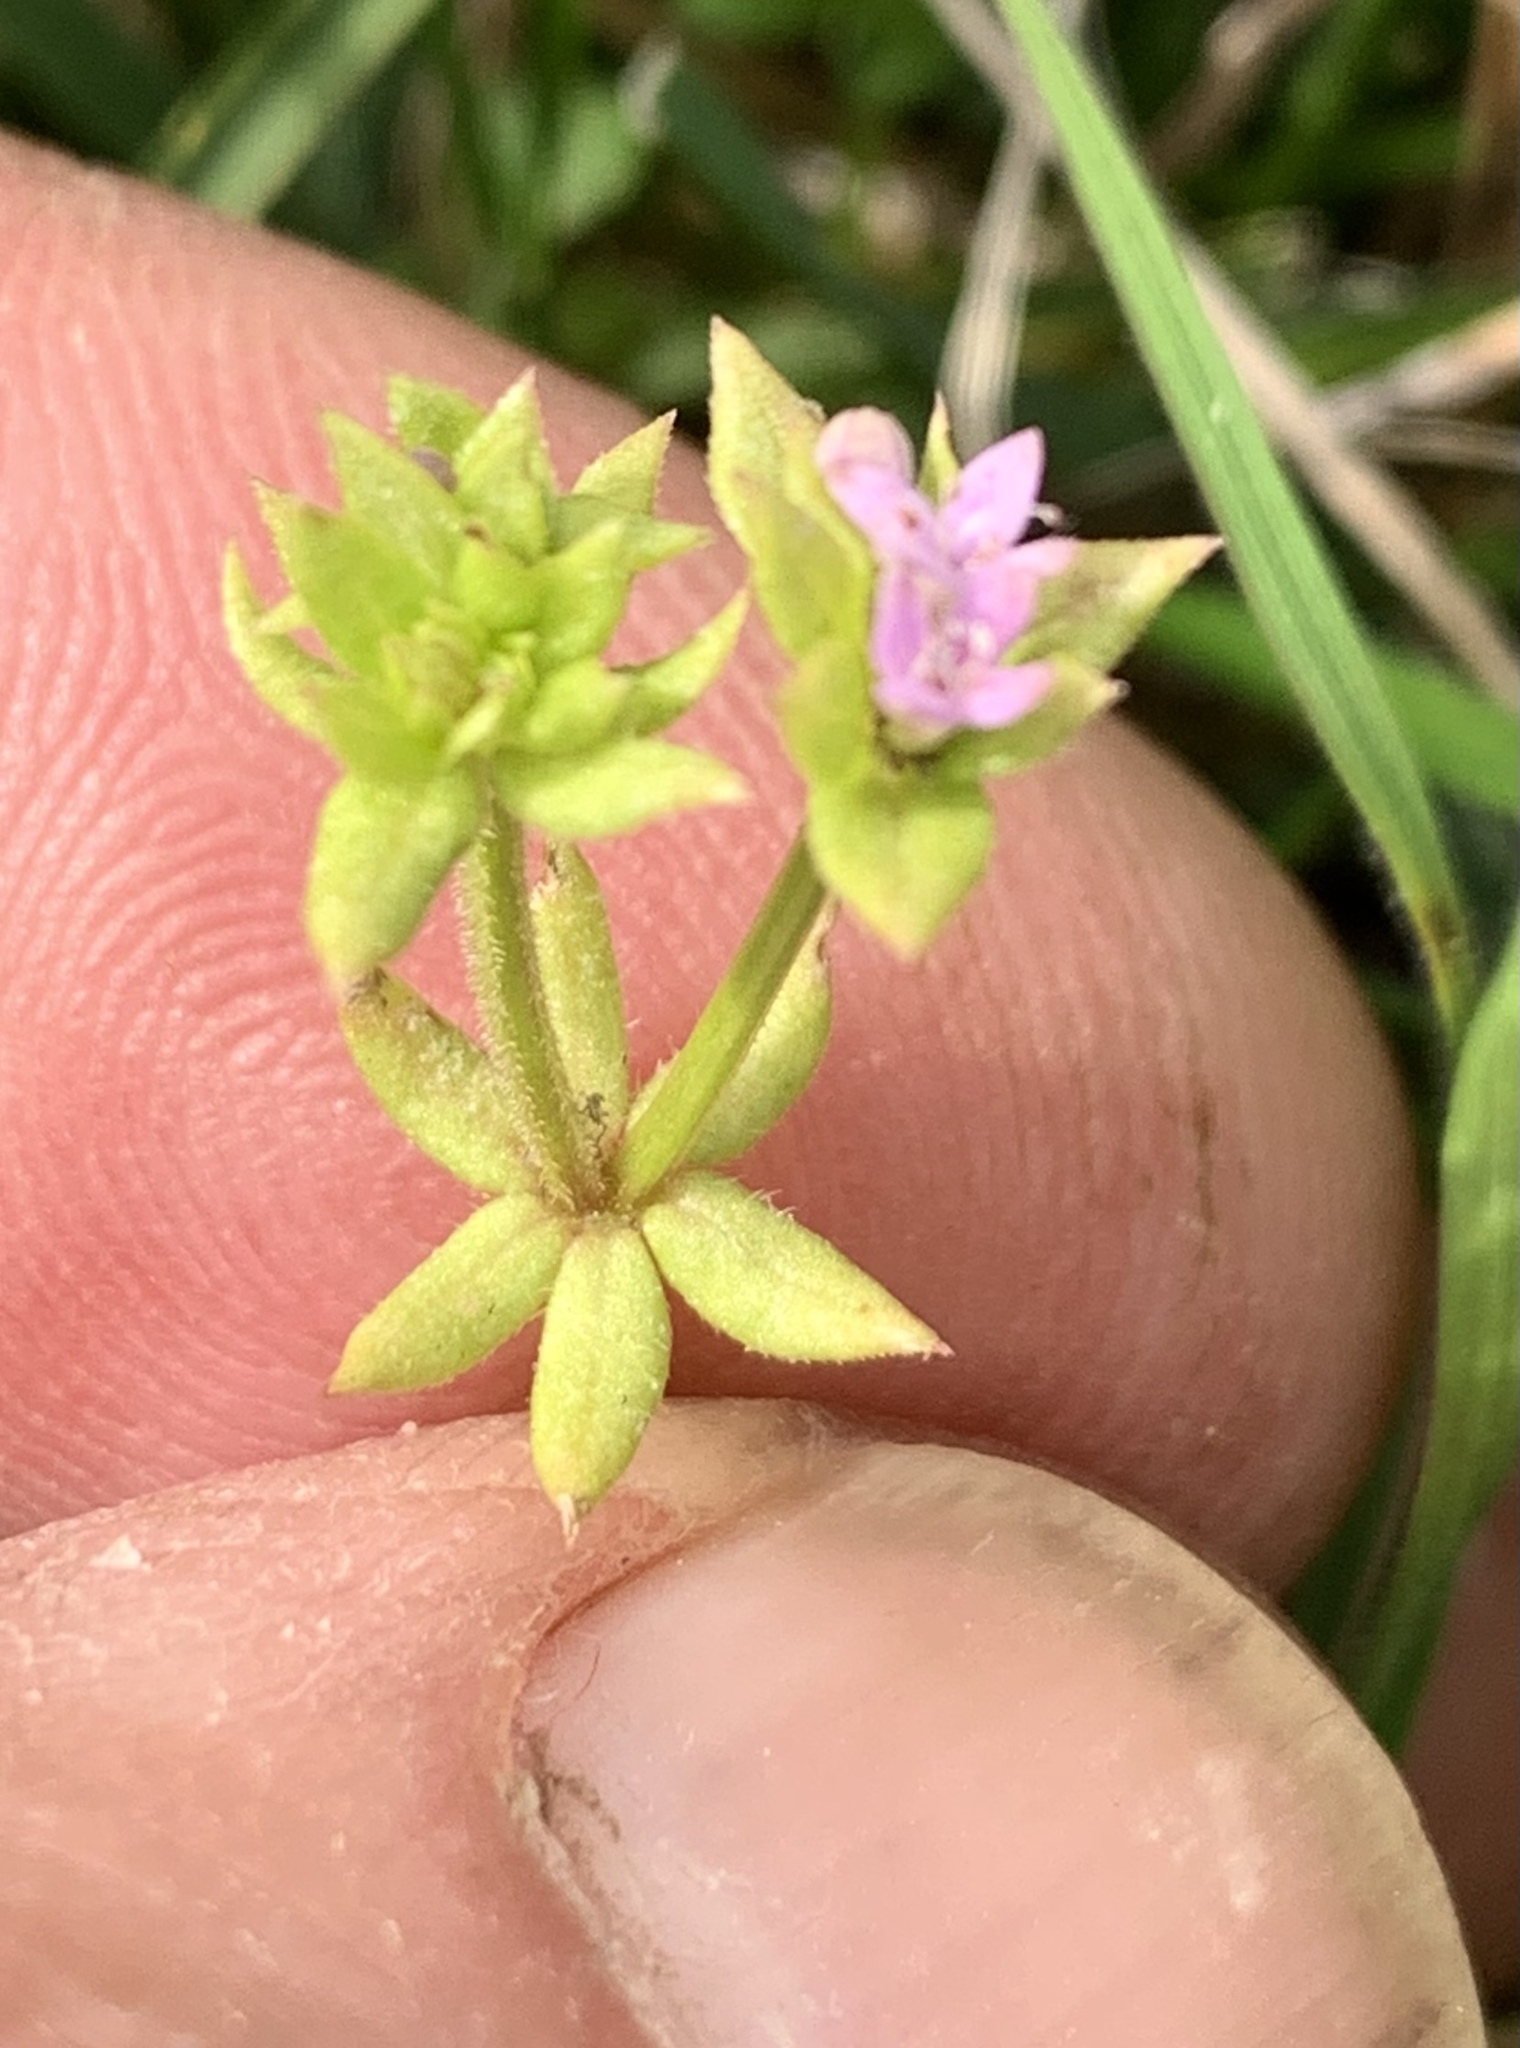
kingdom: Plantae
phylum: Tracheophyta
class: Magnoliopsida
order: Gentianales
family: Rubiaceae
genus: Sherardia
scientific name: Sherardia arvensis
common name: Field madder
